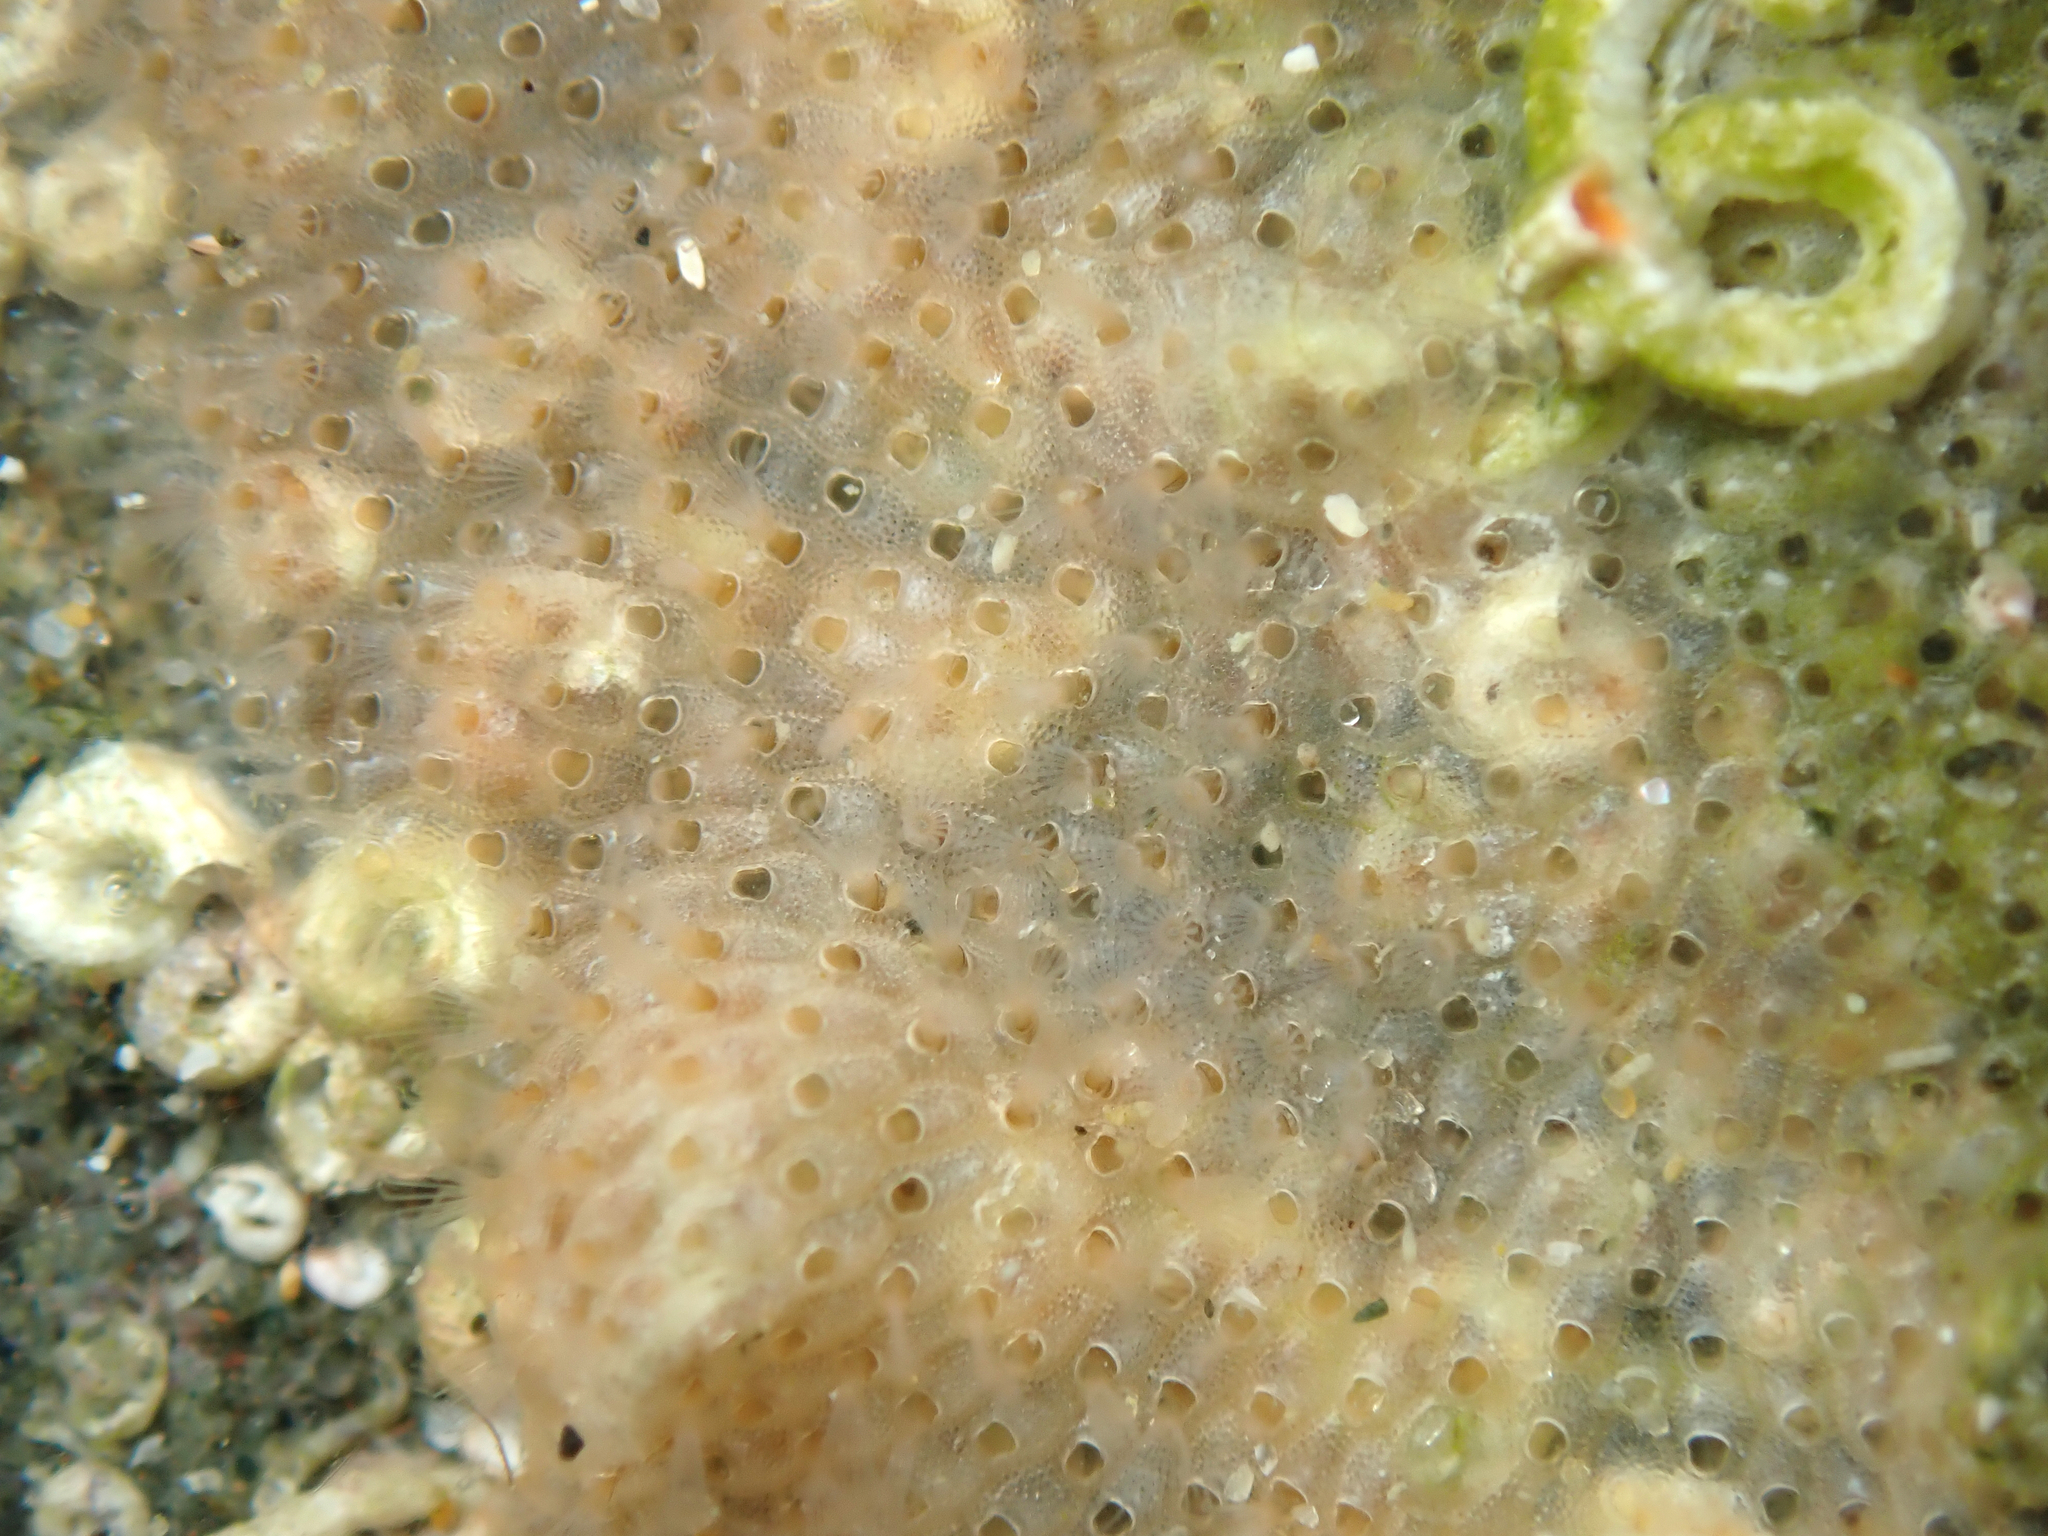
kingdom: Animalia
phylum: Bryozoa
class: Gymnolaemata
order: Cheilostomatida
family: Cryptosulidae
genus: Cryptosula
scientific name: Cryptosula pallasiana
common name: Red crust
